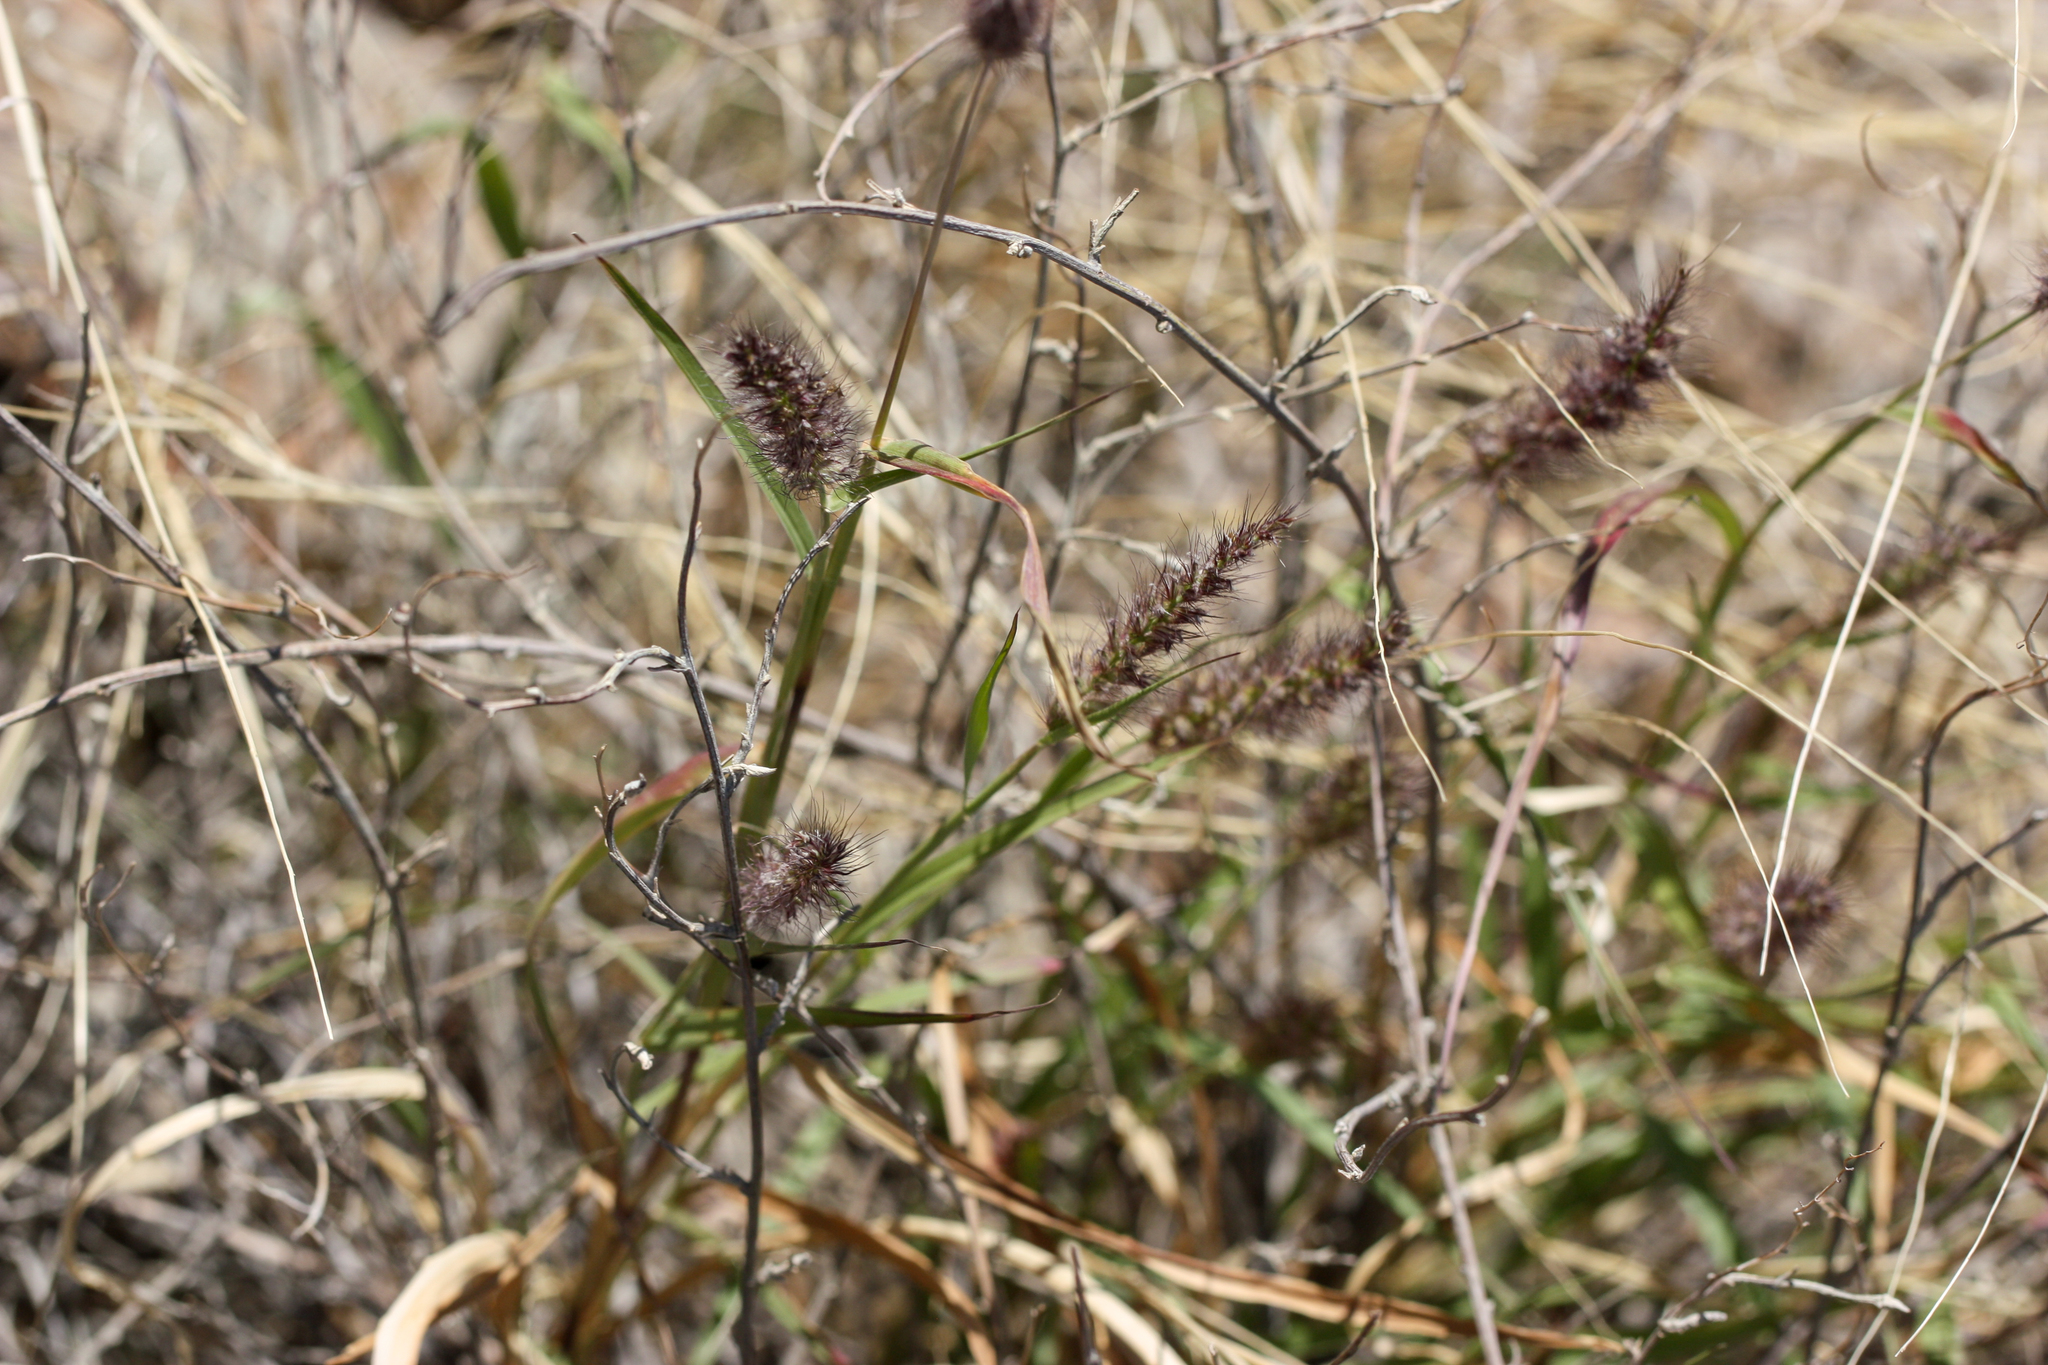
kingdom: Plantae
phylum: Tracheophyta
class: Liliopsida
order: Poales
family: Poaceae
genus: Cenchrus
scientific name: Cenchrus ciliaris
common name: Buffelgrass
